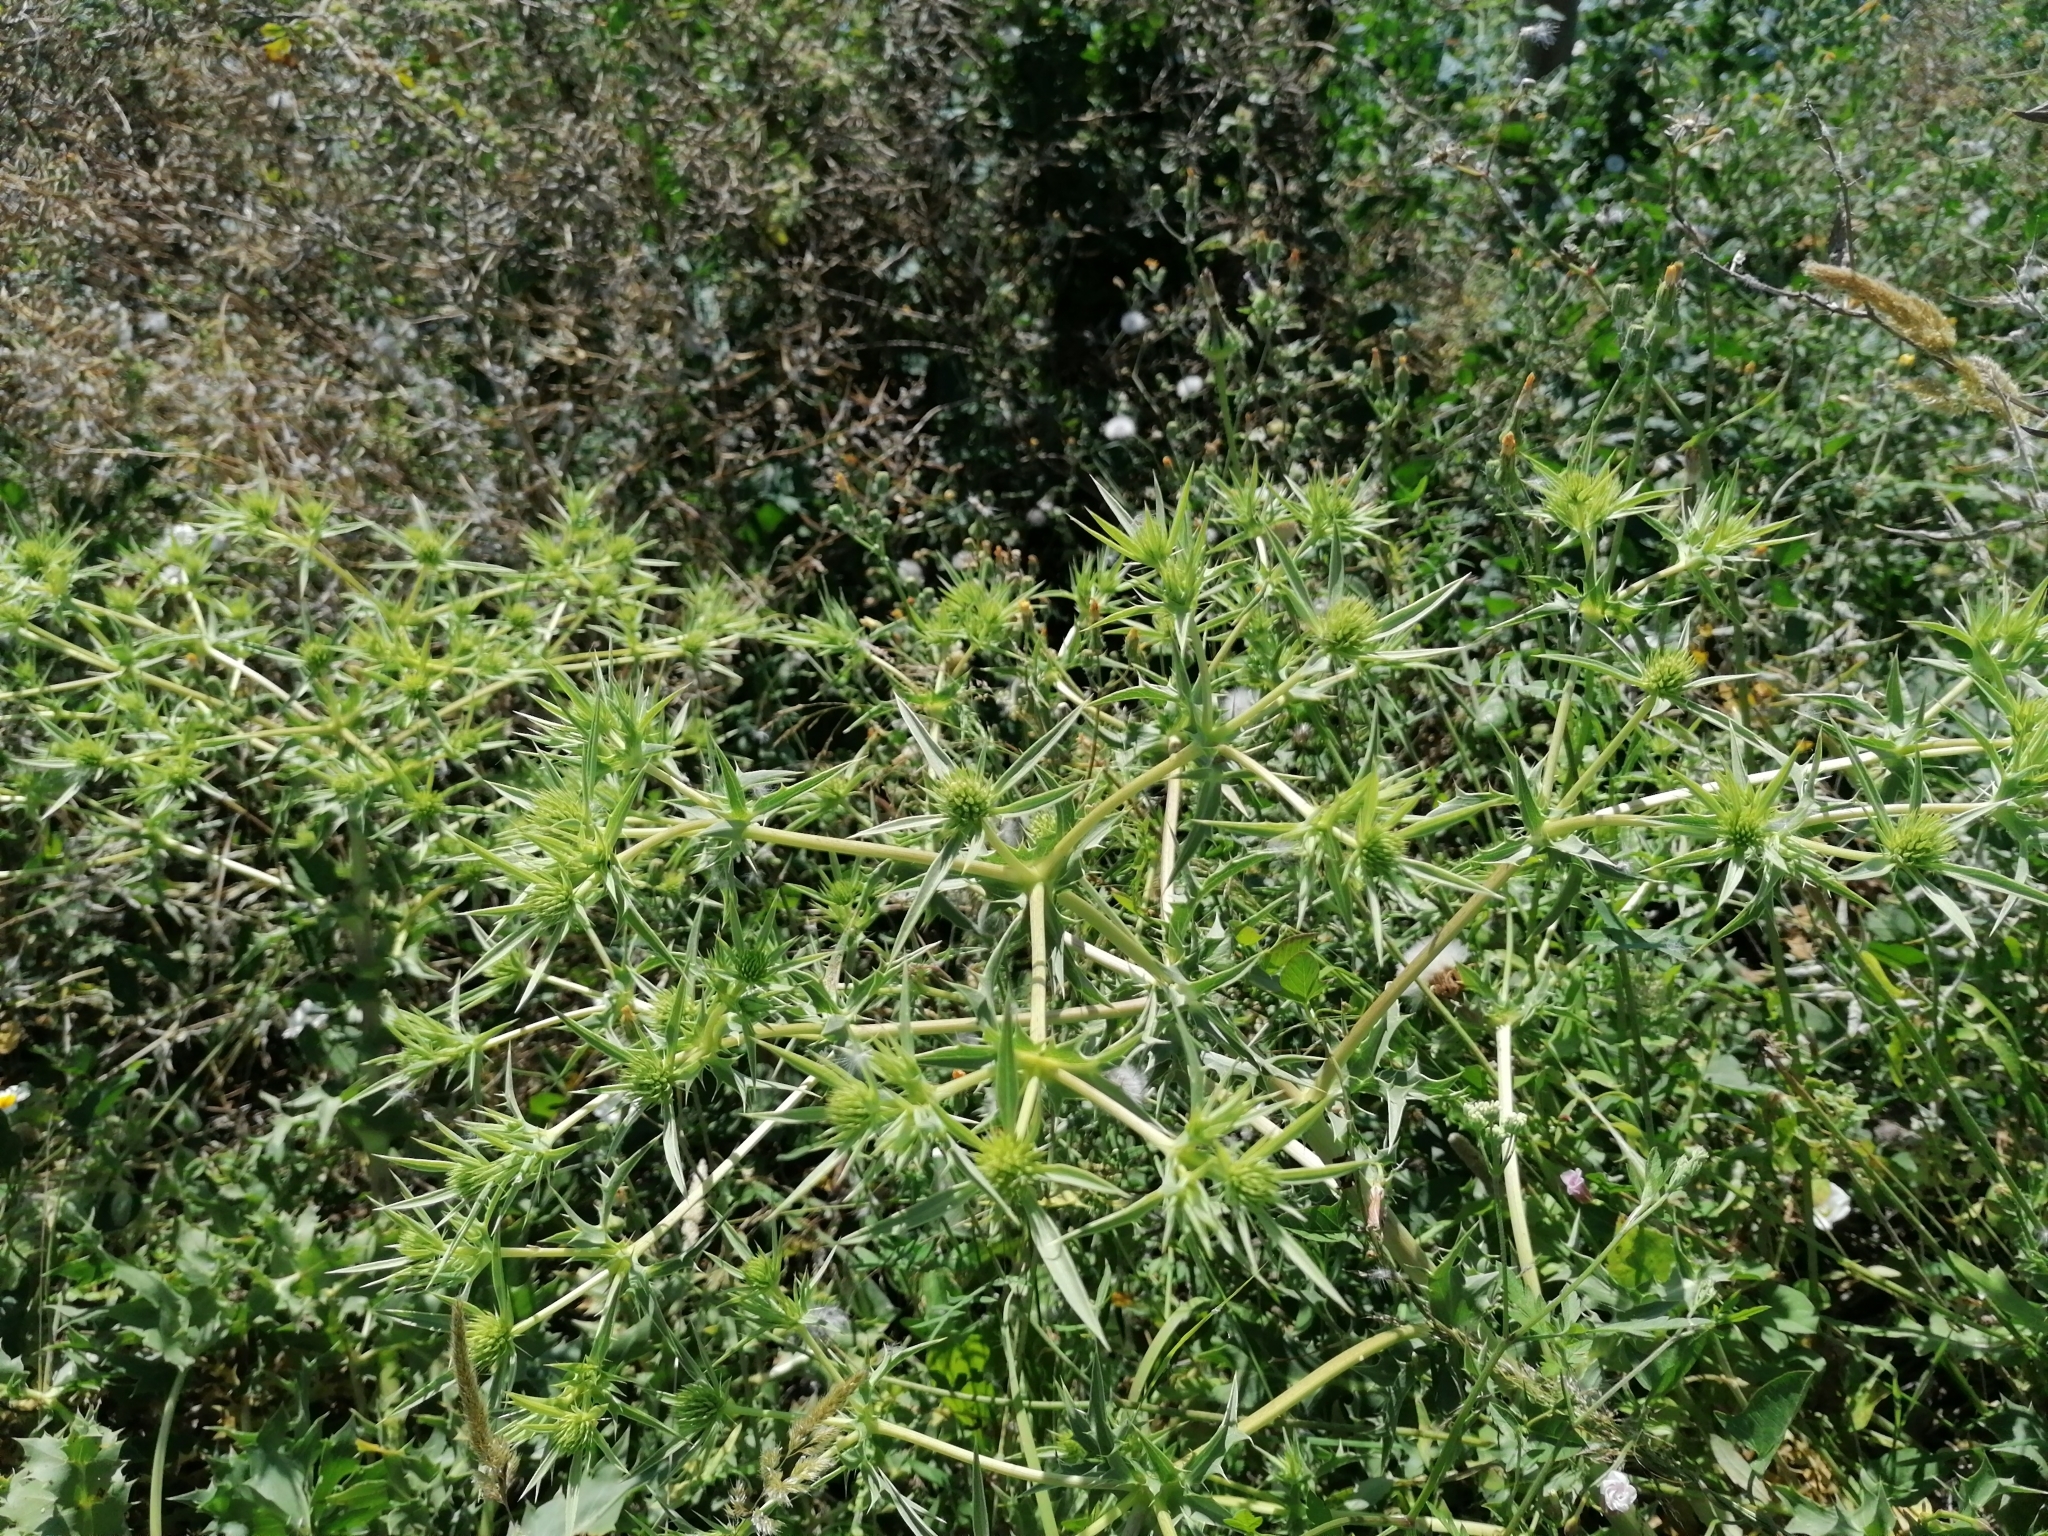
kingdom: Plantae
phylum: Tracheophyta
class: Magnoliopsida
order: Apiales
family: Apiaceae
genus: Eryngium
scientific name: Eryngium campestre
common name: Field eryngo
